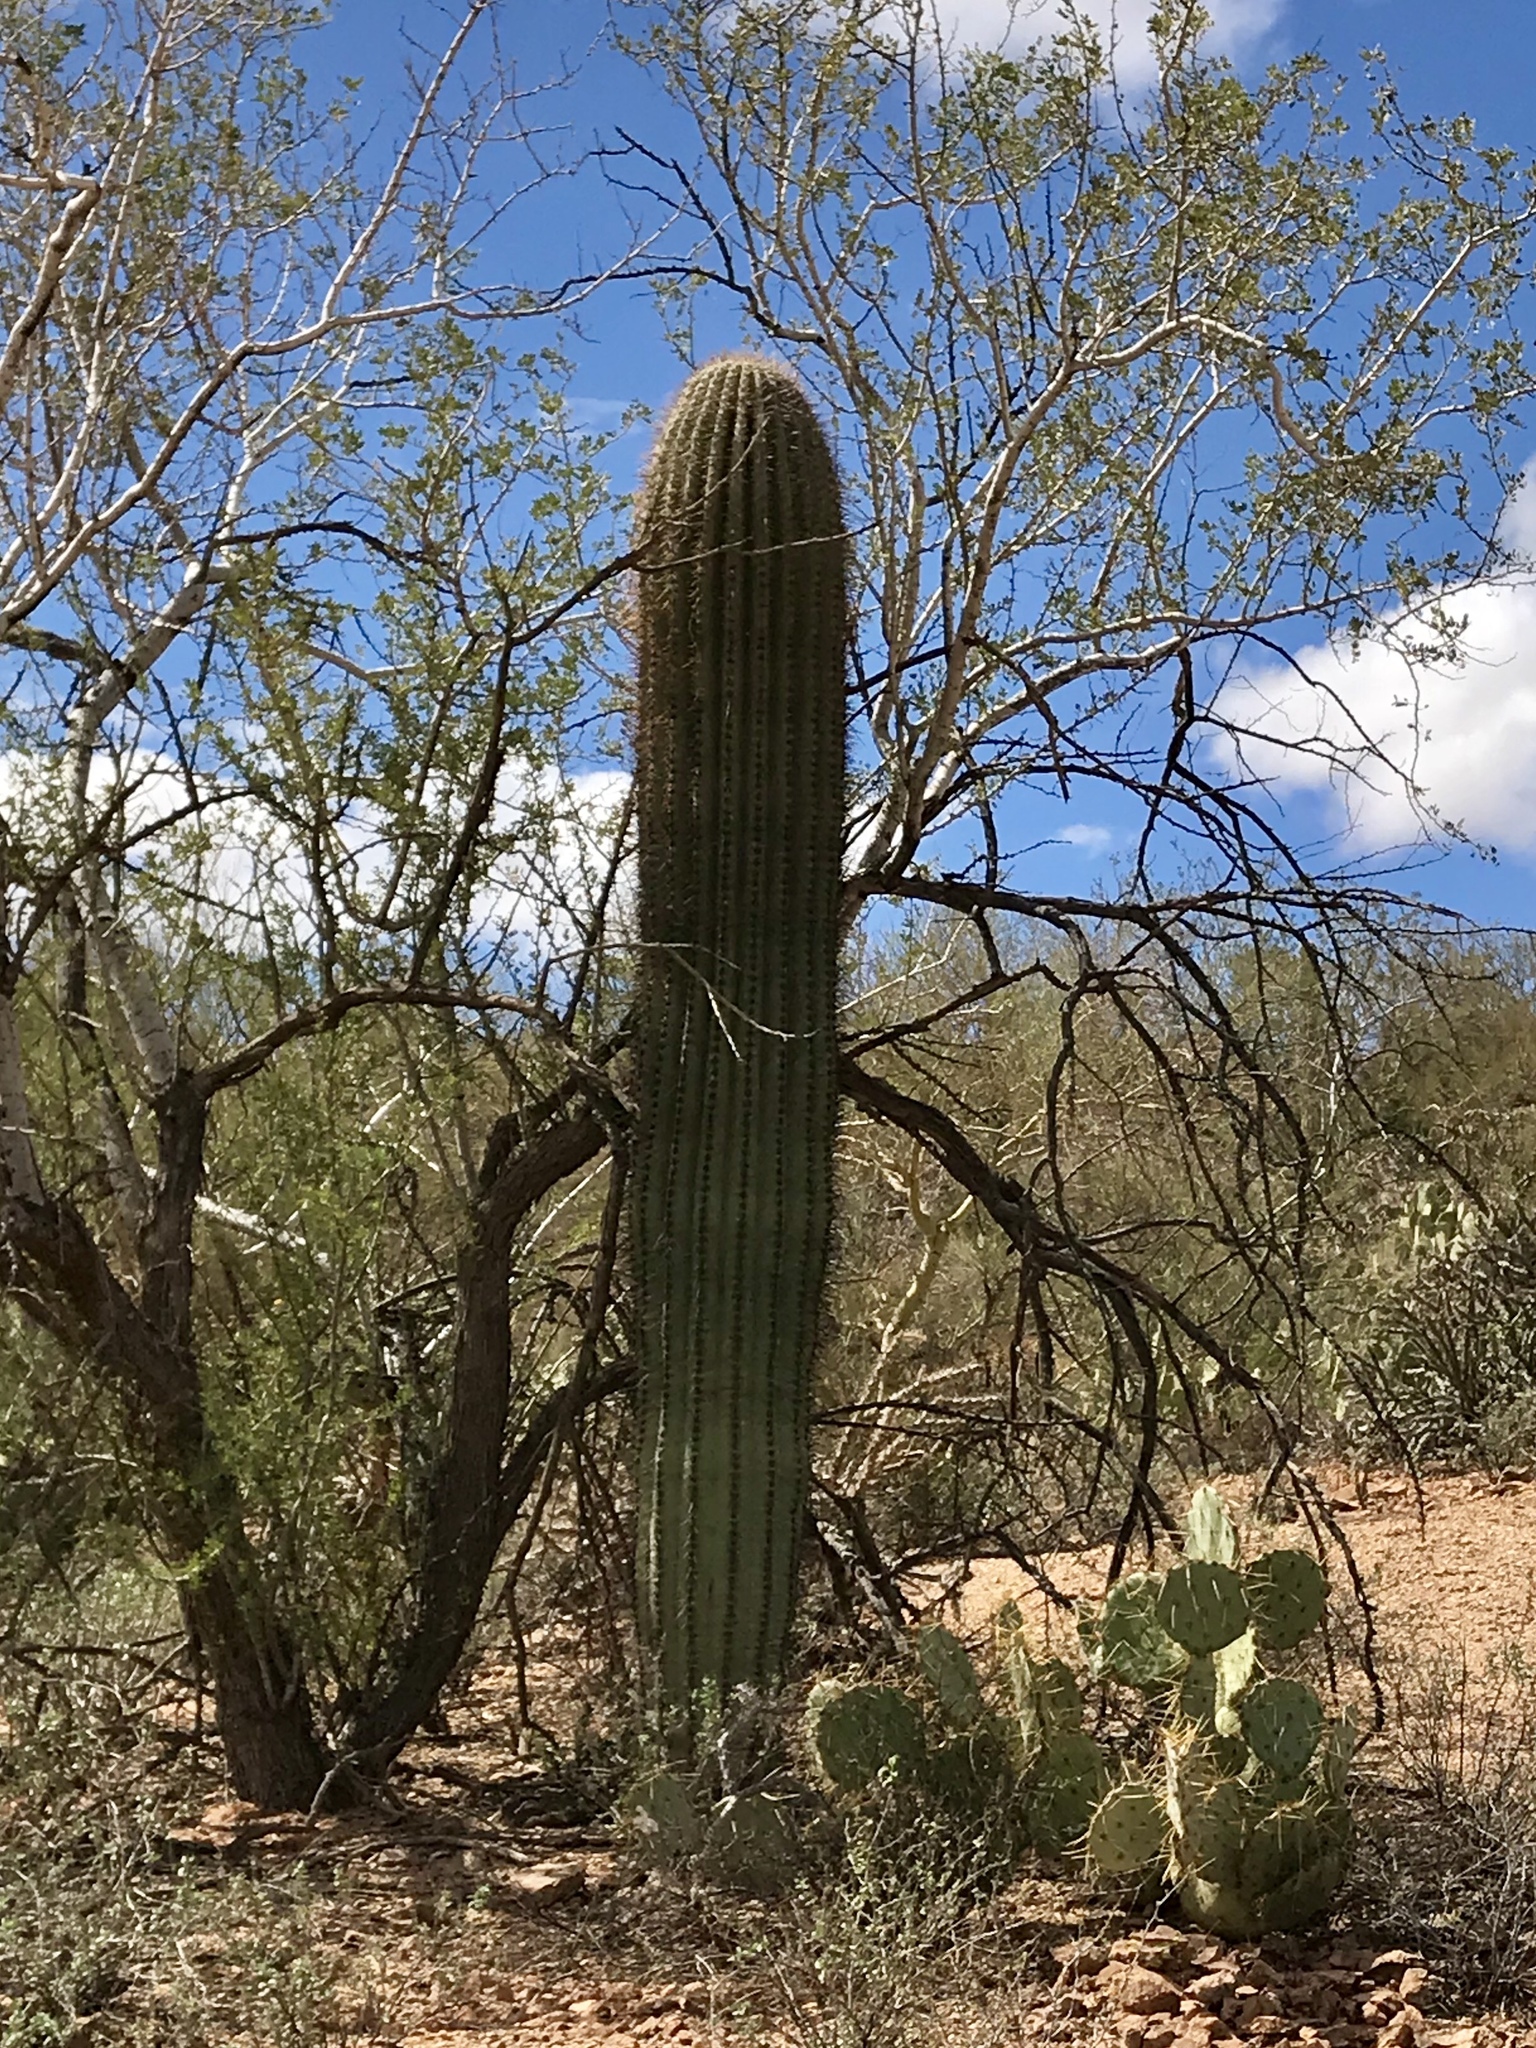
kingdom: Plantae
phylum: Tracheophyta
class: Magnoliopsida
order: Caryophyllales
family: Cactaceae
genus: Carnegiea
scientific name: Carnegiea gigantea
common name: Saguaro
